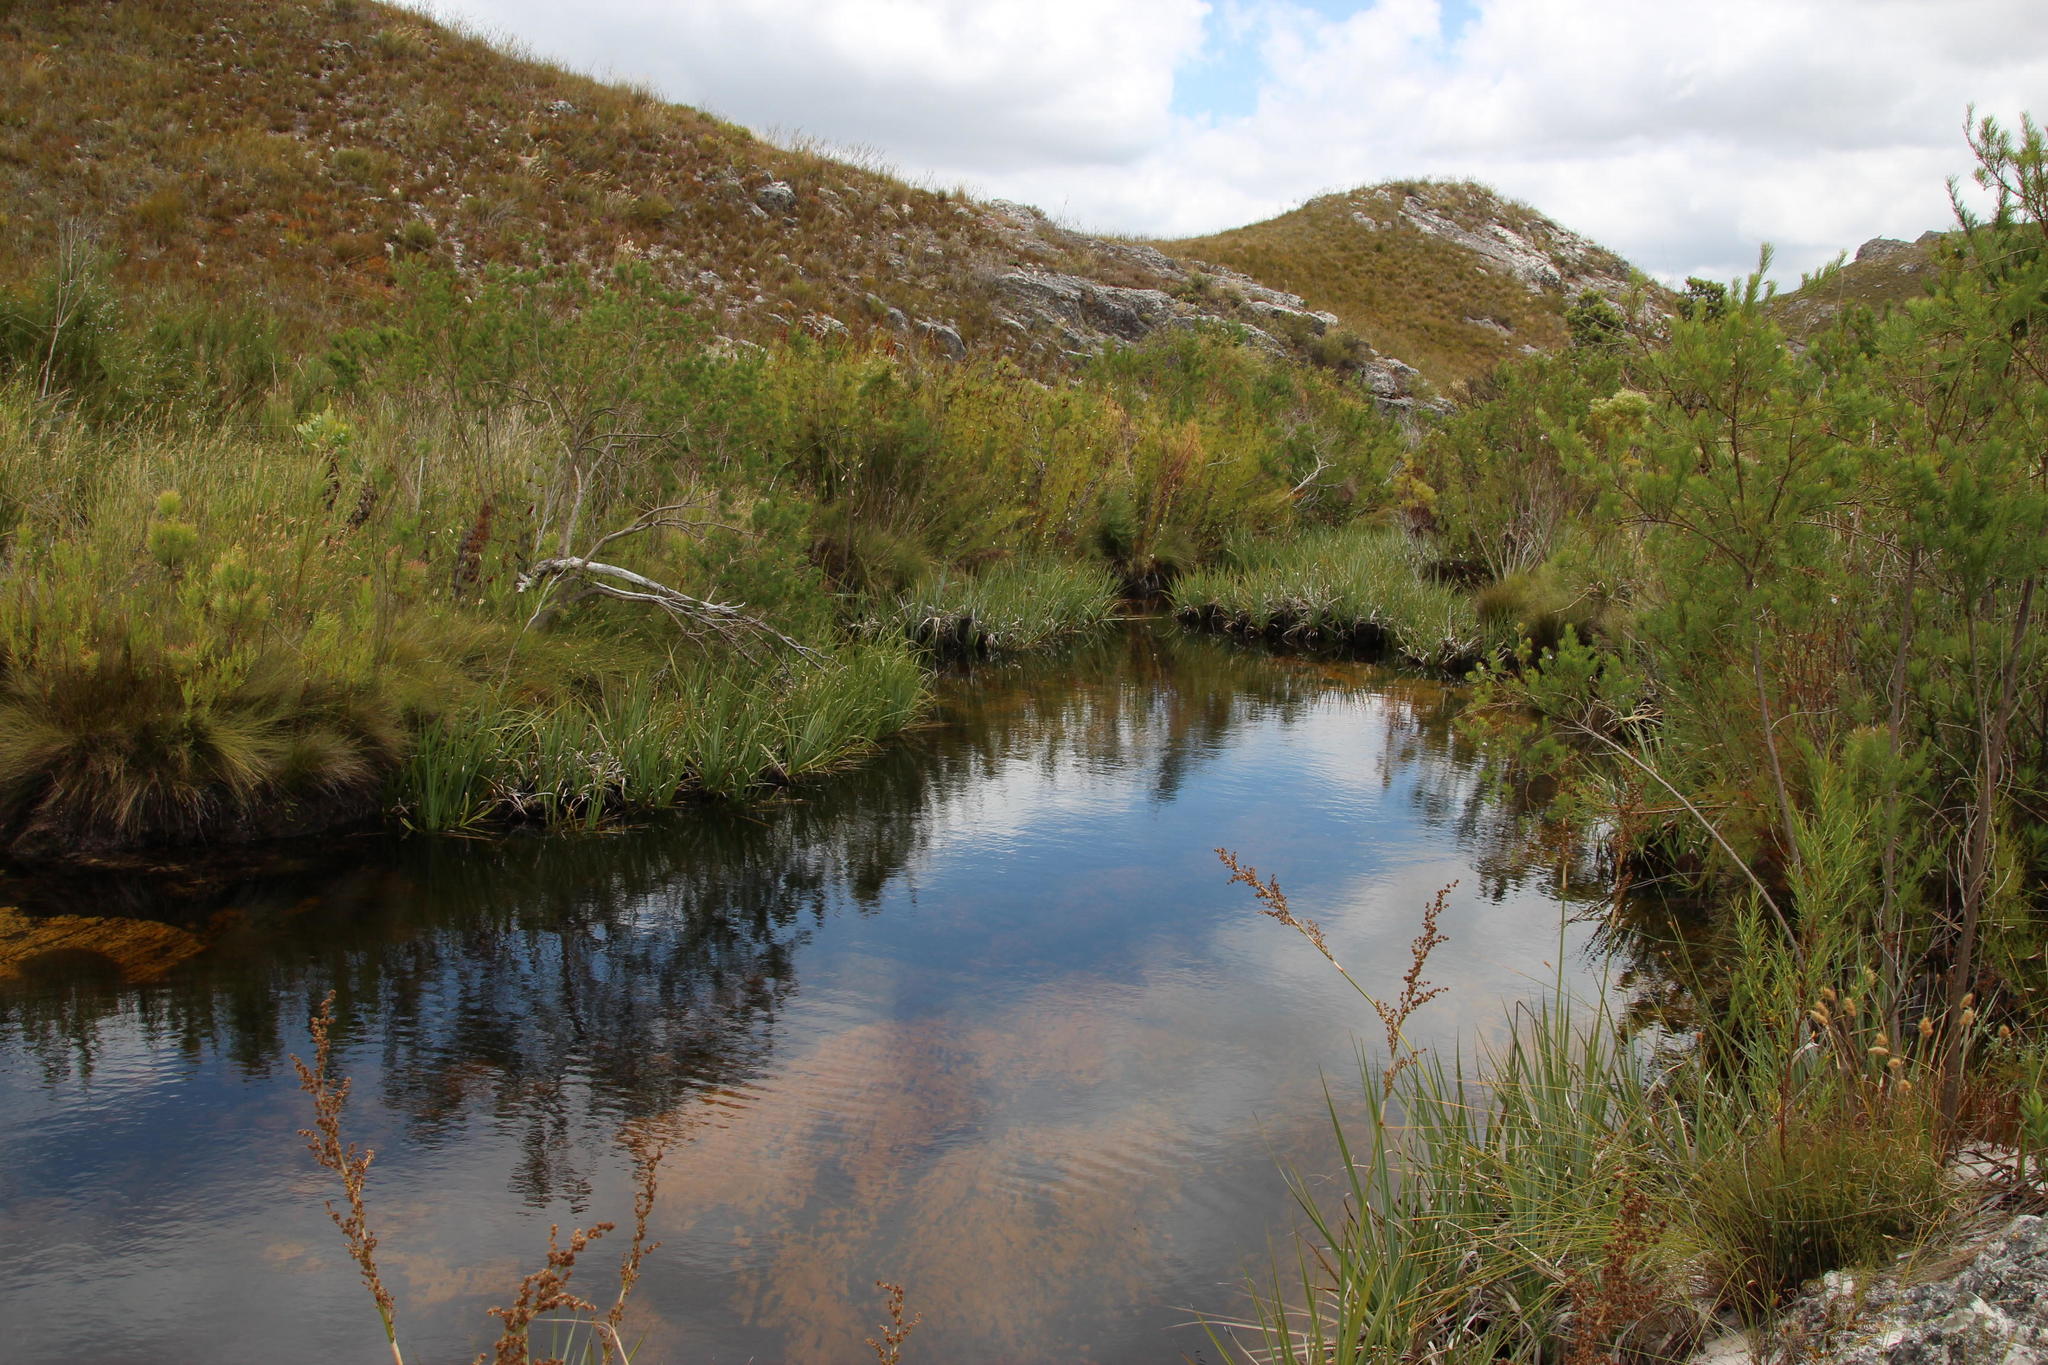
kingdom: Plantae
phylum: Tracheophyta
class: Liliopsida
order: Poales
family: Thurniaceae
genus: Prionium
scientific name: Prionium serratum
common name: Palmiet
